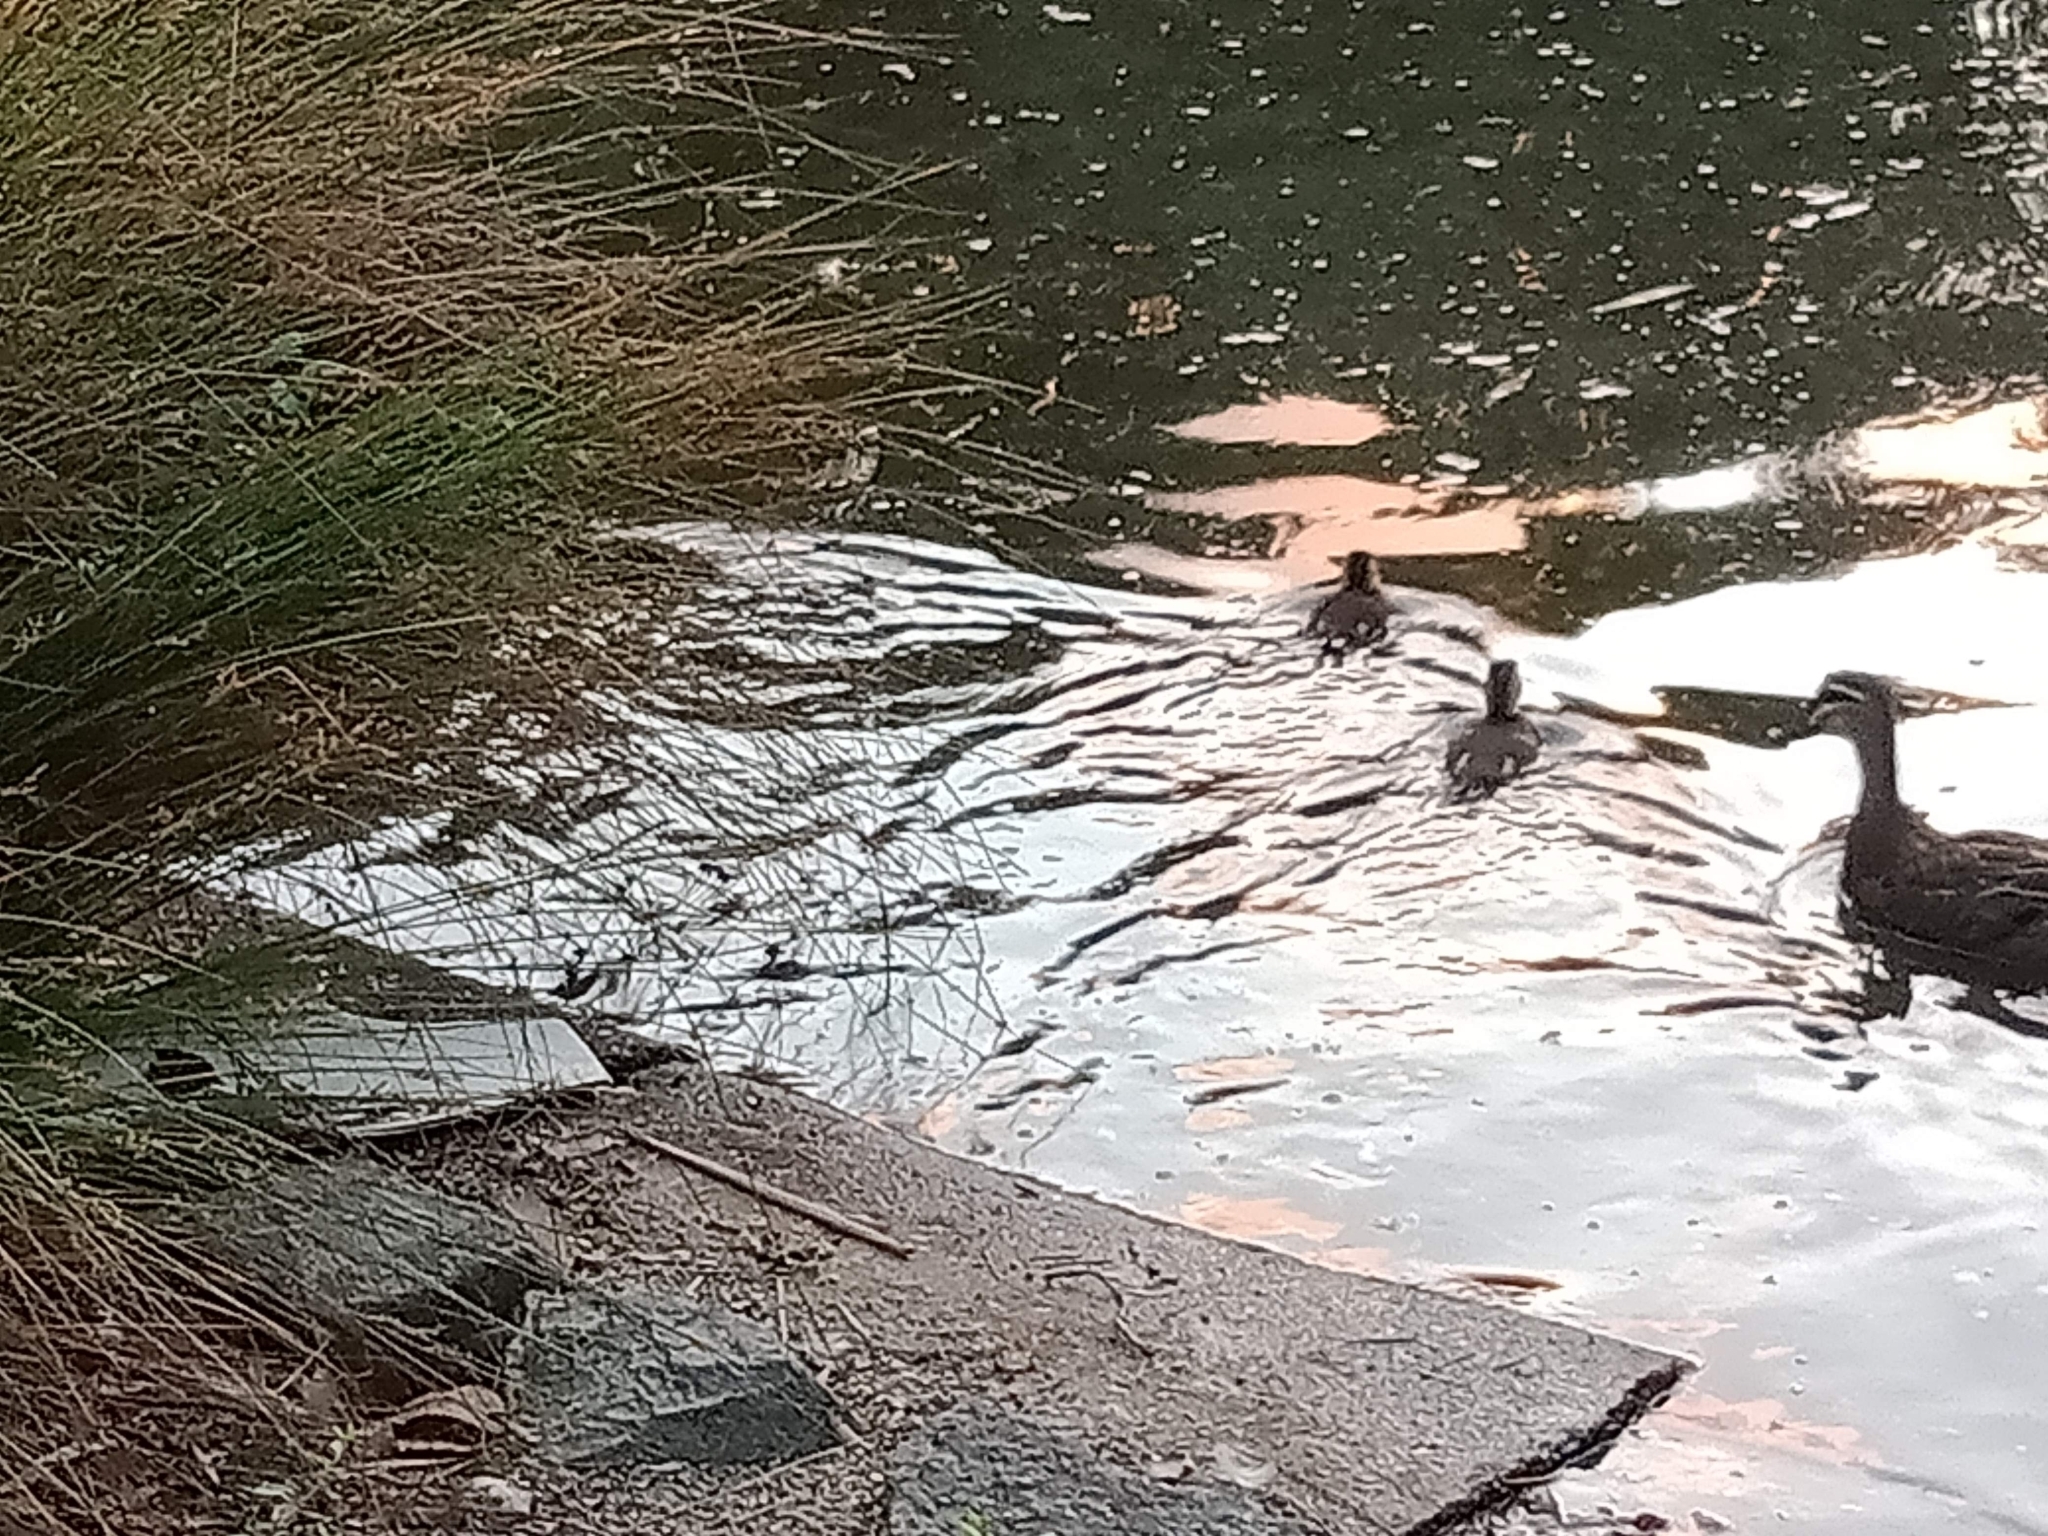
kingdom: Animalia
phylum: Chordata
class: Aves
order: Anseriformes
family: Anatidae
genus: Anas
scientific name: Anas superciliosa
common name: Pacific black duck
